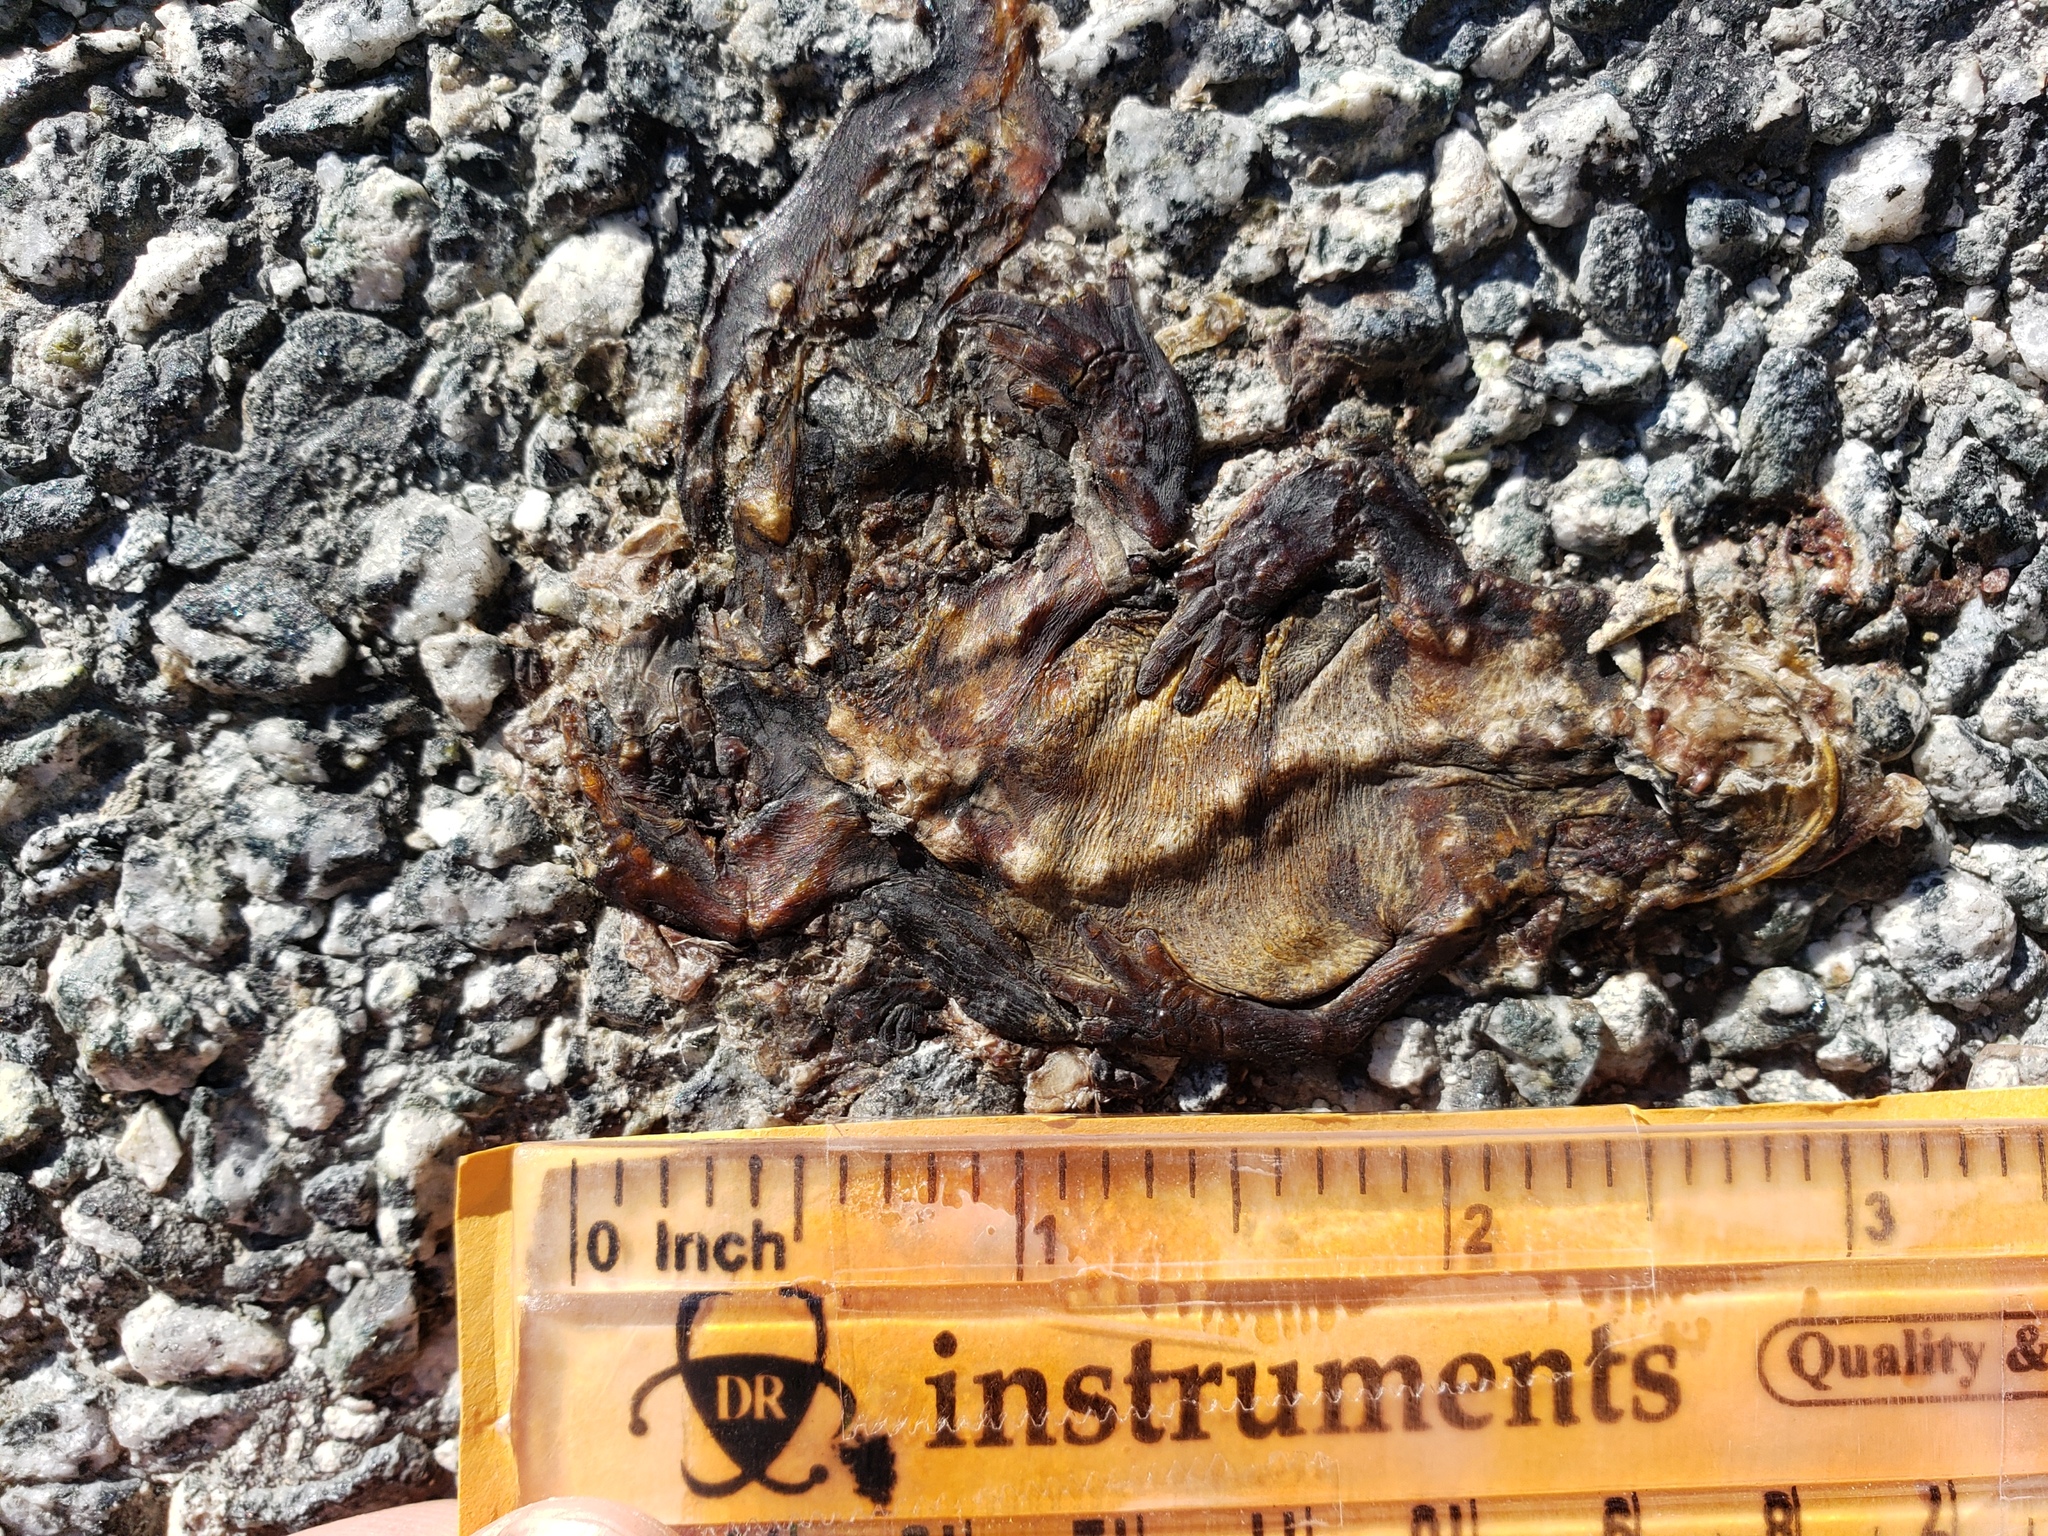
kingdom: Animalia
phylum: Chordata
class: Amphibia
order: Caudata
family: Salamandridae
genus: Taricha
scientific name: Taricha
